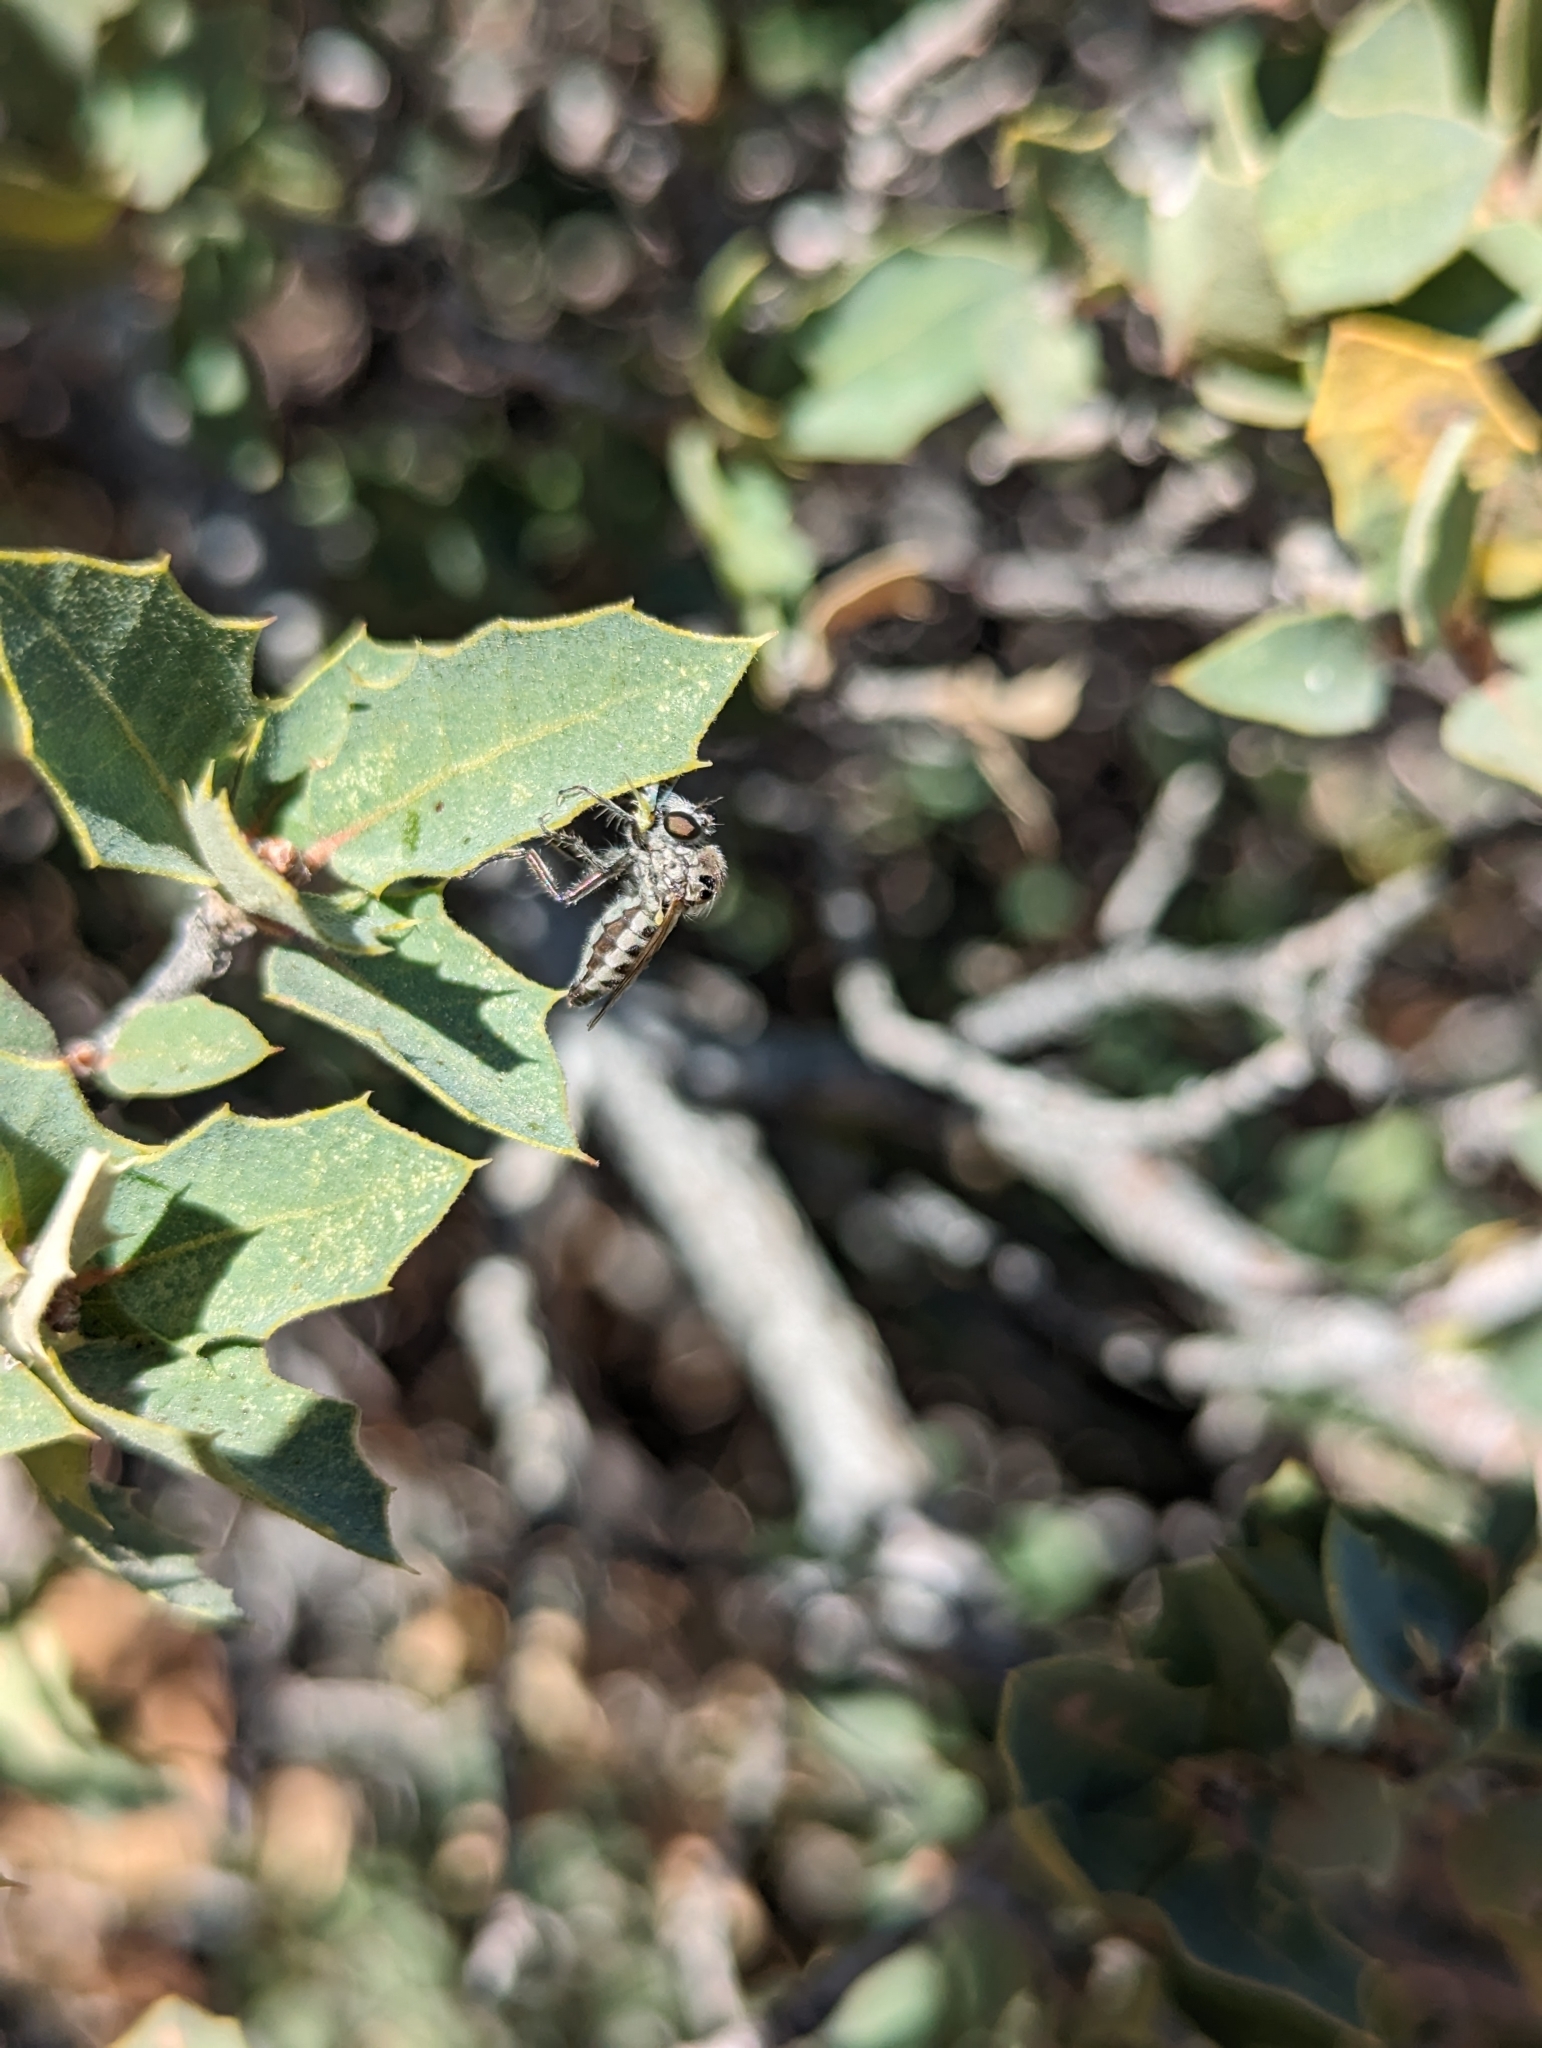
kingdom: Animalia
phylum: Arthropoda
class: Insecta
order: Diptera
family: Asilidae
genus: Sintoria
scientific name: Sintoria cyanea
